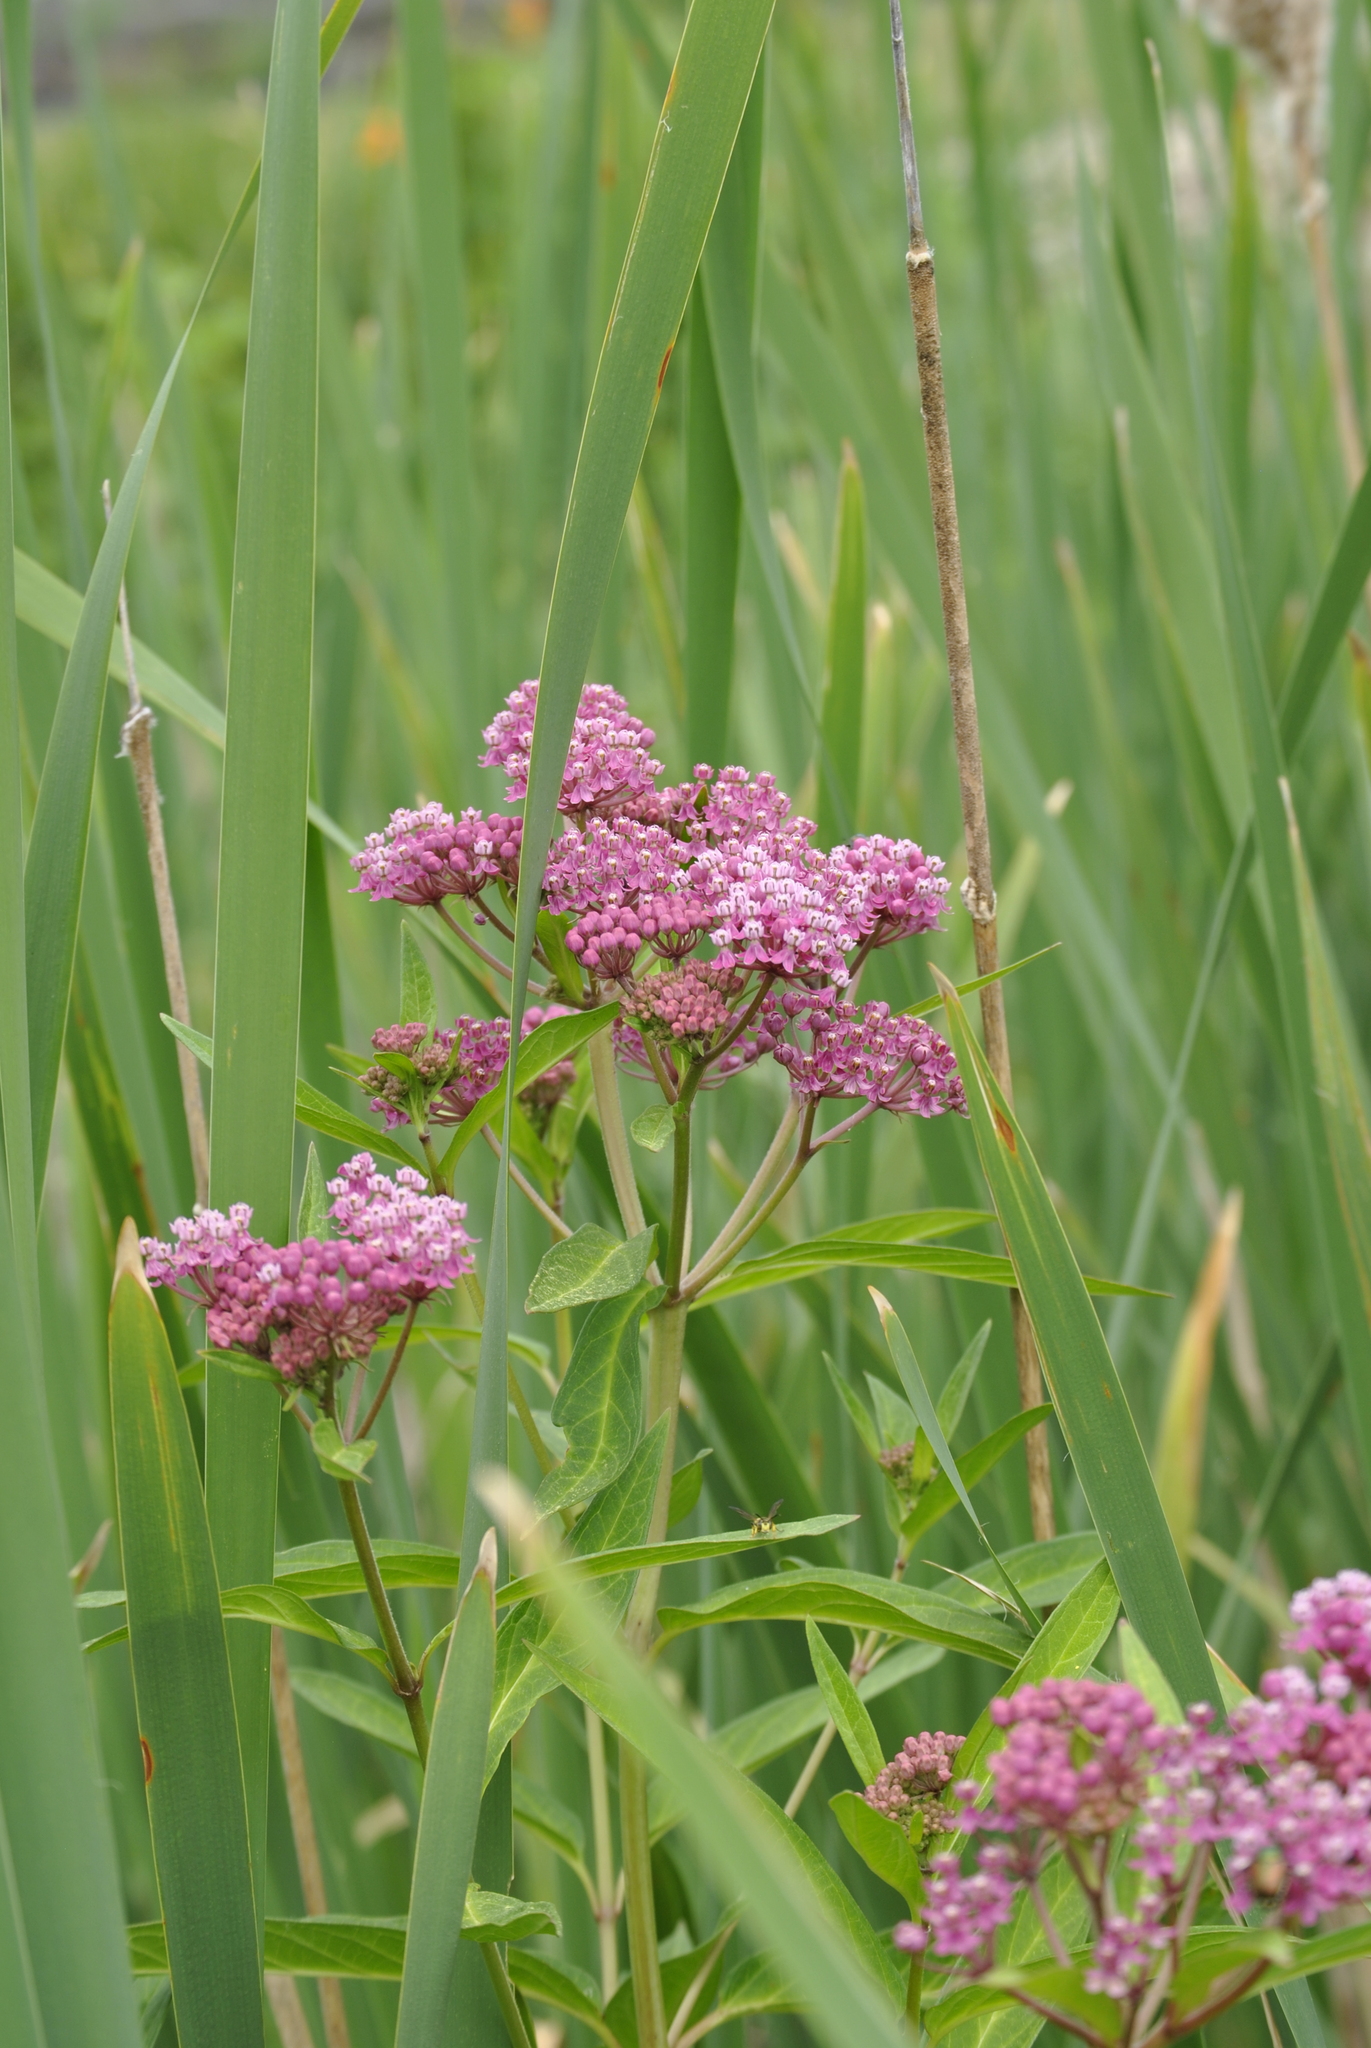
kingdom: Plantae
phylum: Tracheophyta
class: Magnoliopsida
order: Gentianales
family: Apocynaceae
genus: Asclepias
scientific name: Asclepias incarnata
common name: Swamp milkweed
